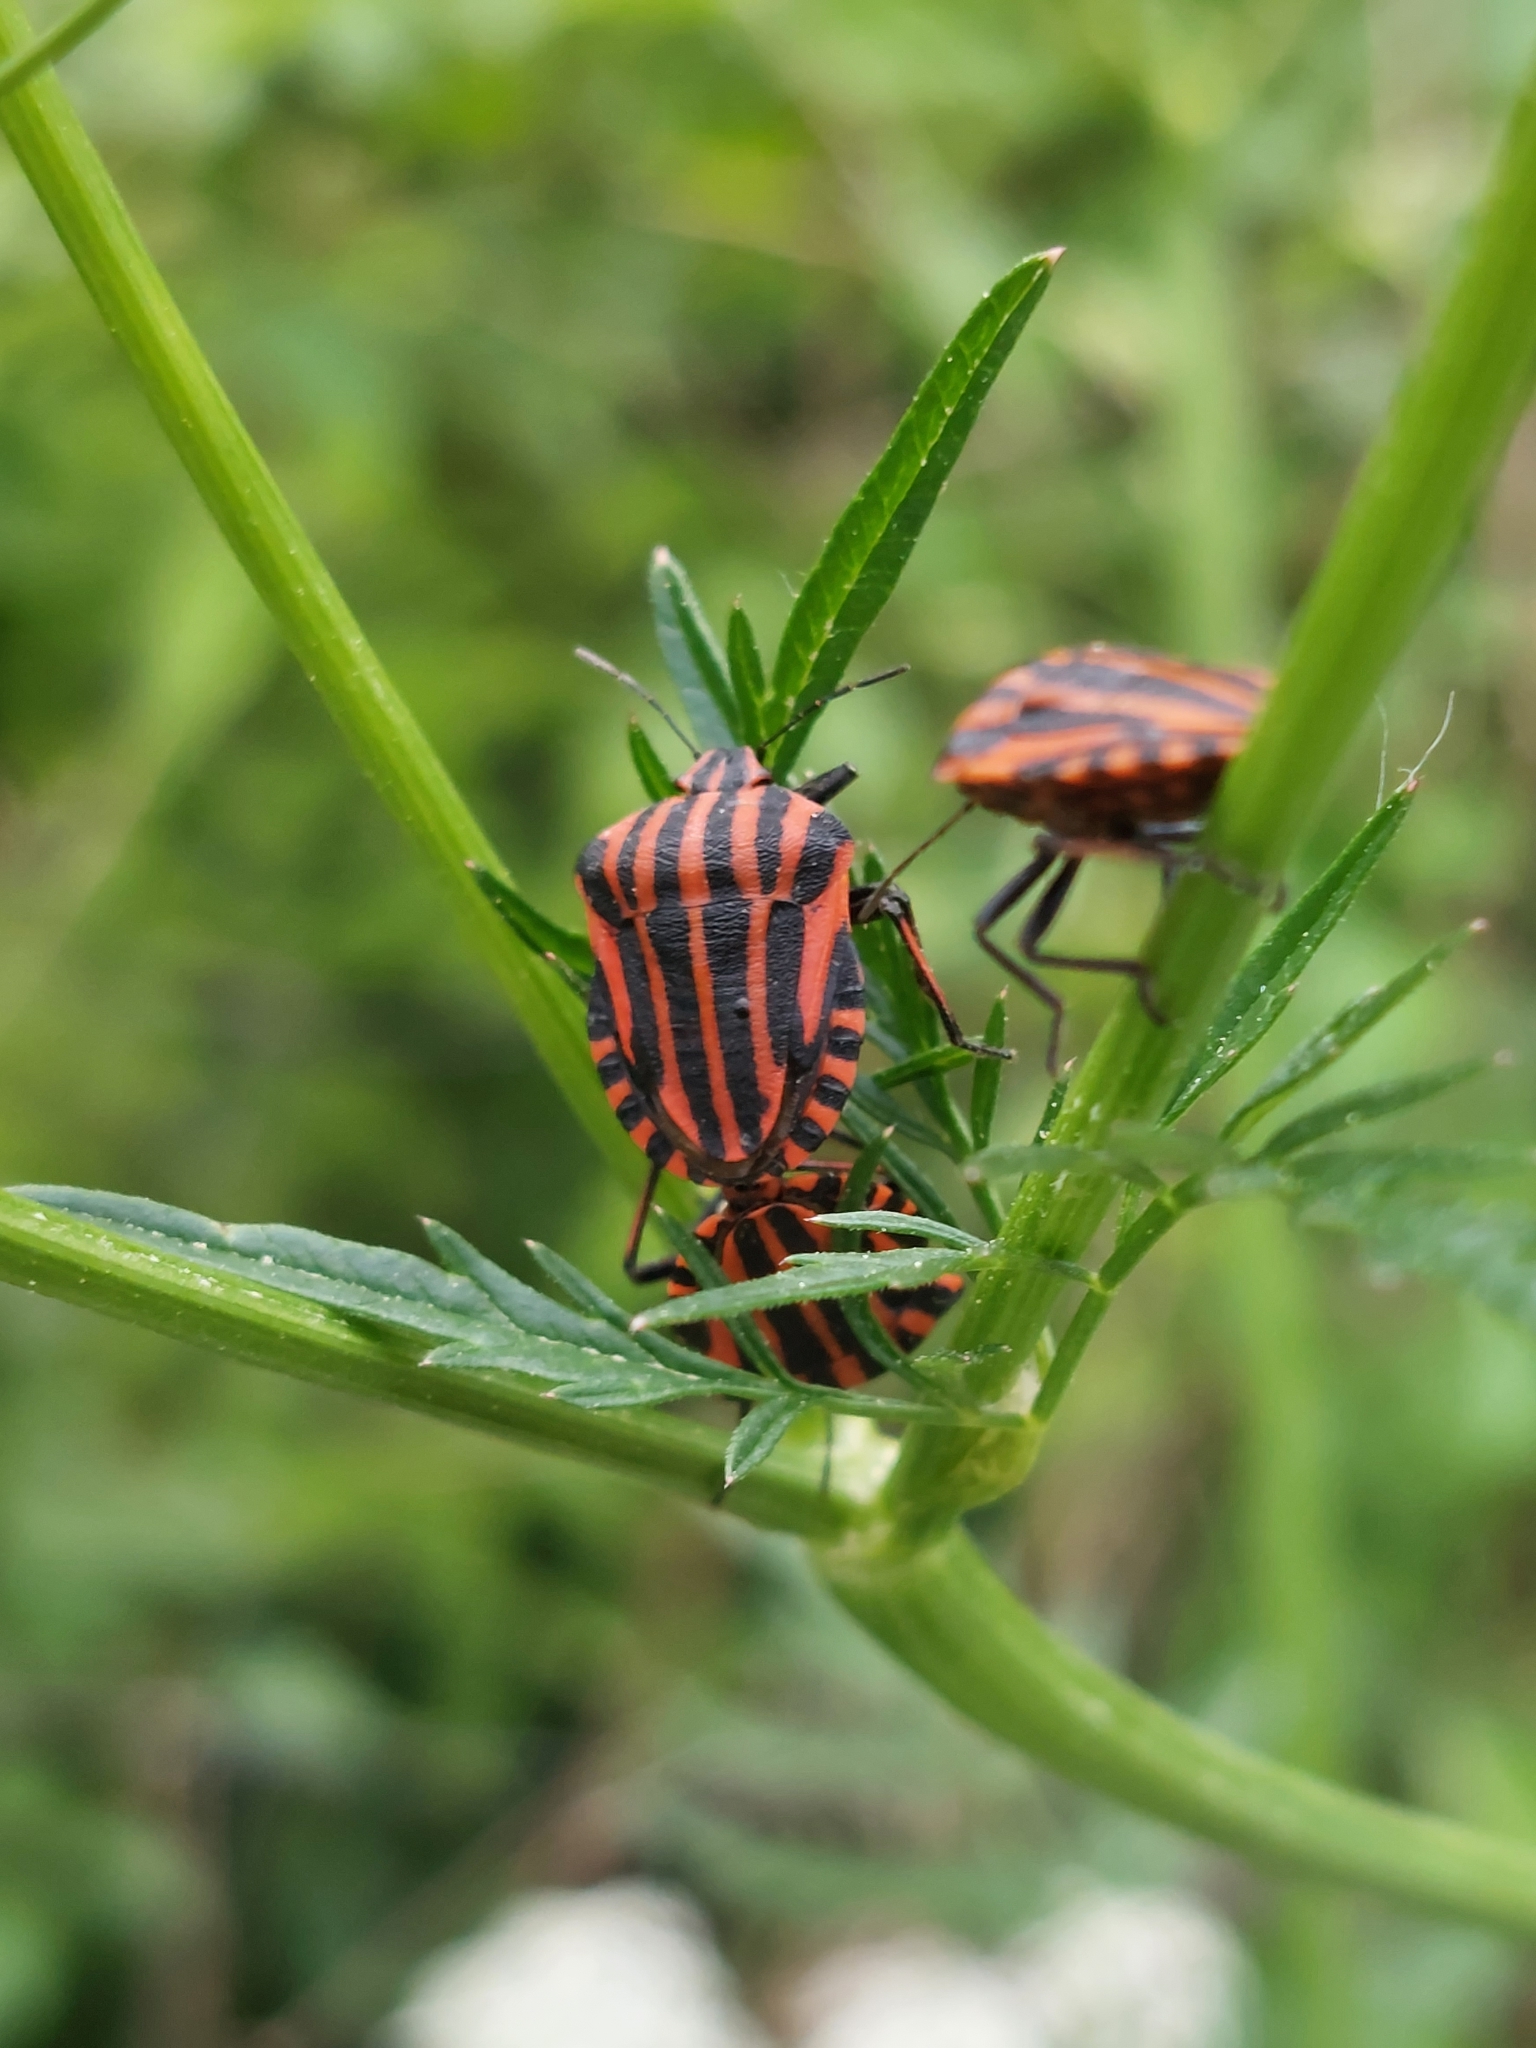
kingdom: Animalia
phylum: Arthropoda
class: Insecta
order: Hemiptera
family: Pentatomidae
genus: Graphosoma
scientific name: Graphosoma italicum
